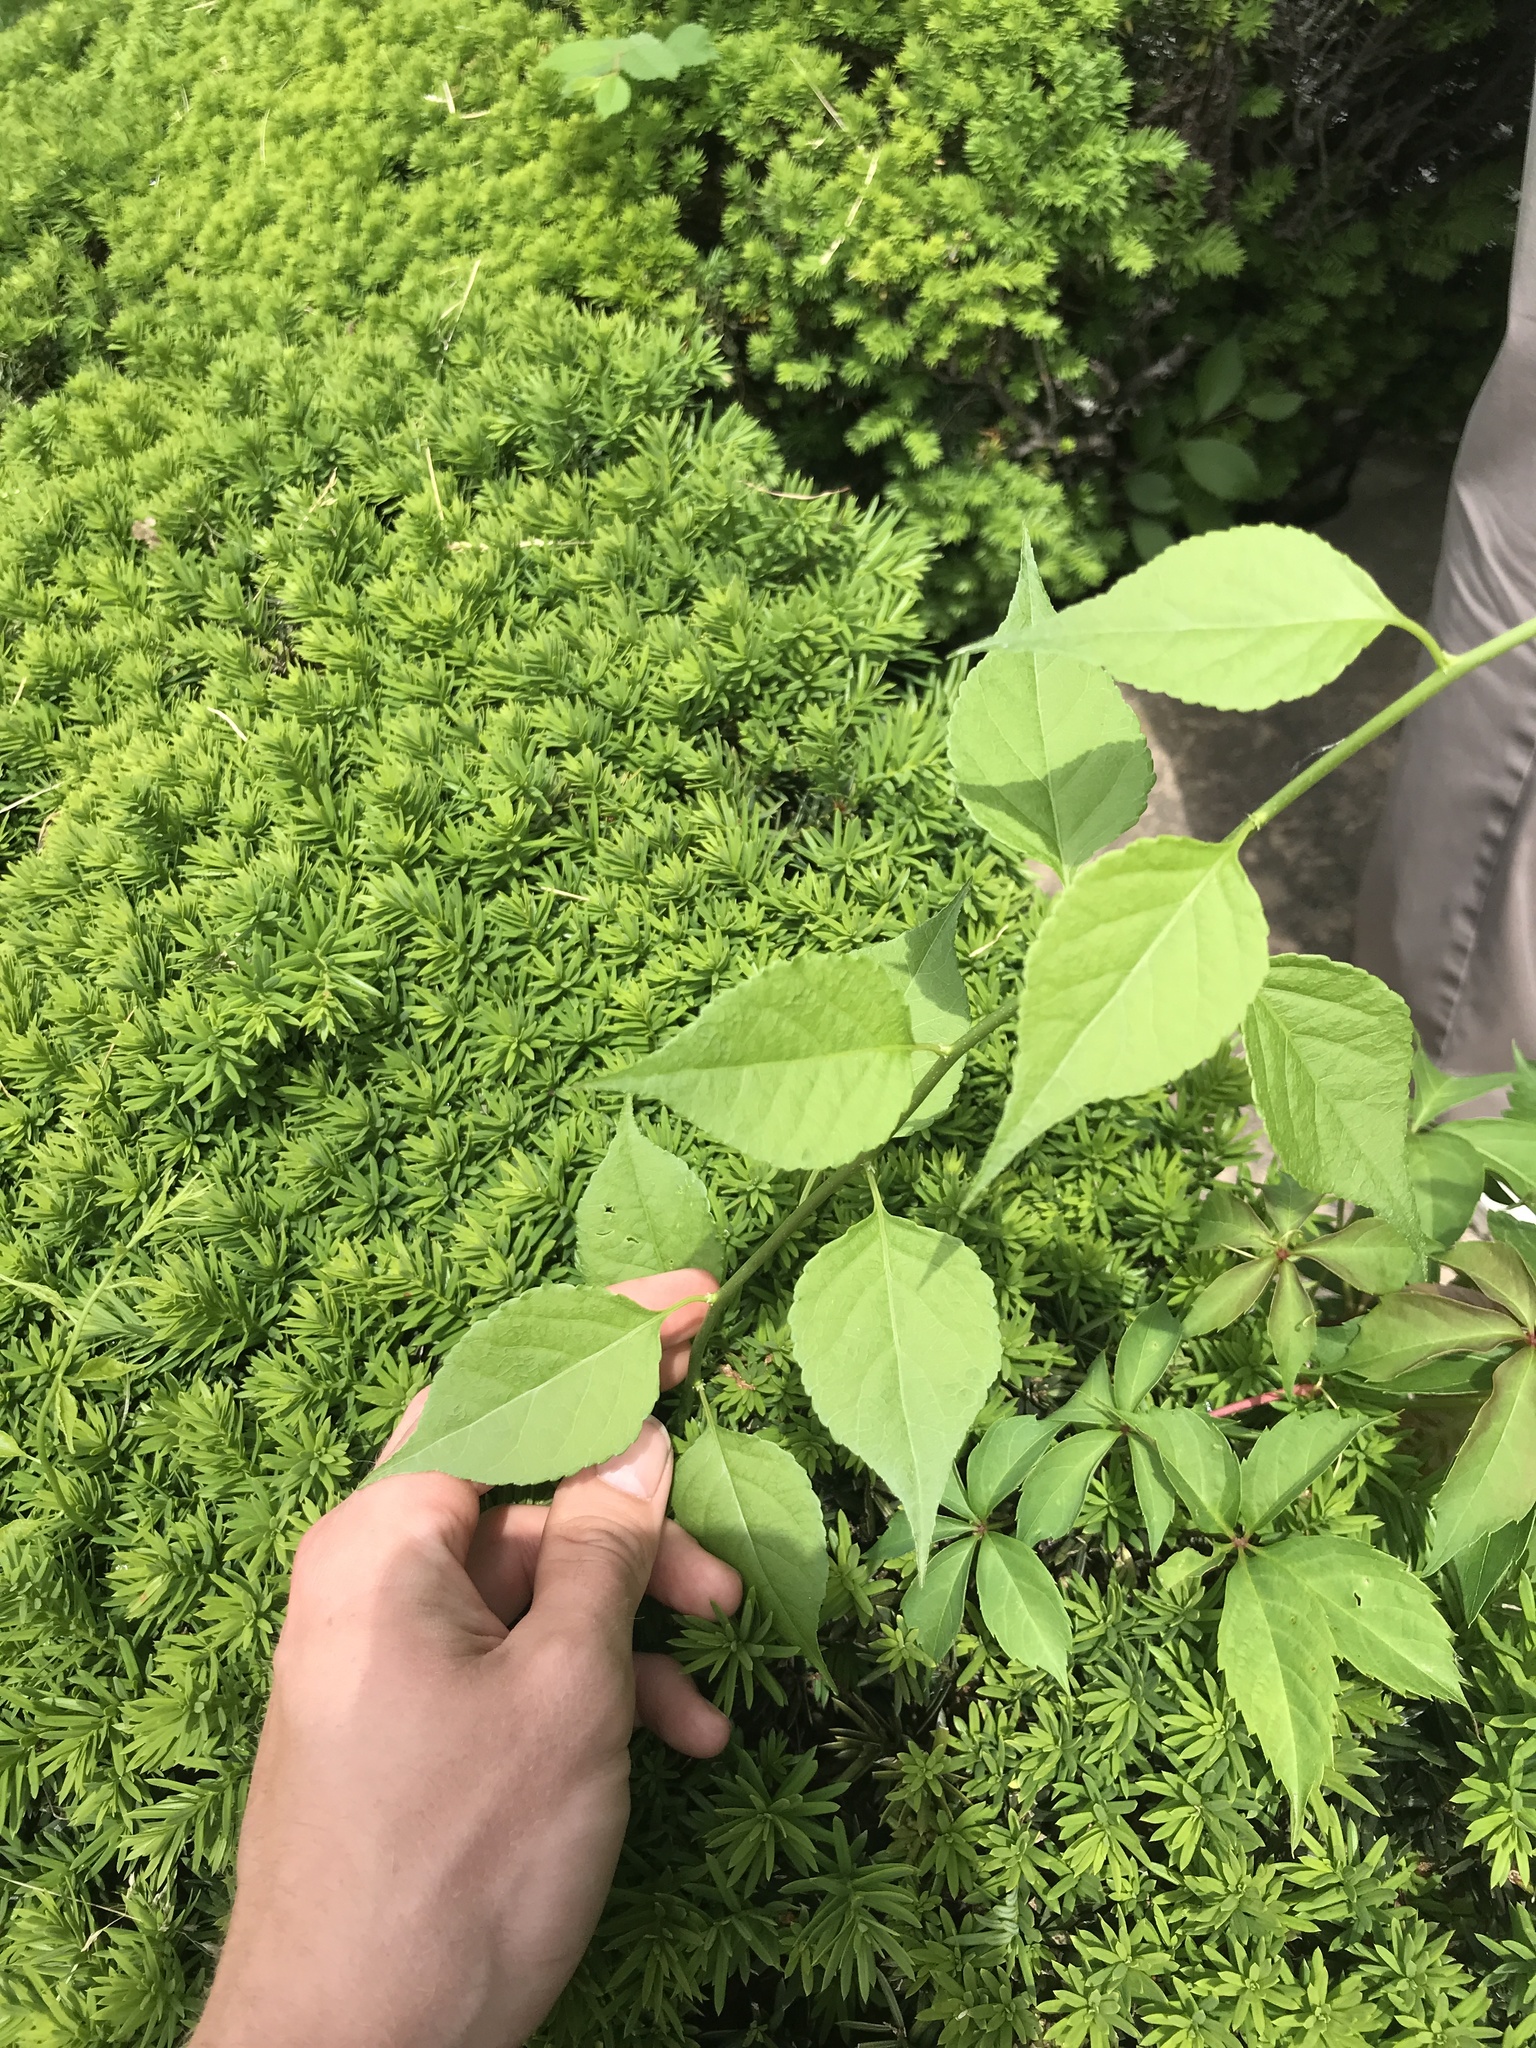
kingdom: Plantae
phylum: Tracheophyta
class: Magnoliopsida
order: Celastrales
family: Celastraceae
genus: Celastrus
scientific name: Celastrus orbiculatus
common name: Oriental bittersweet
